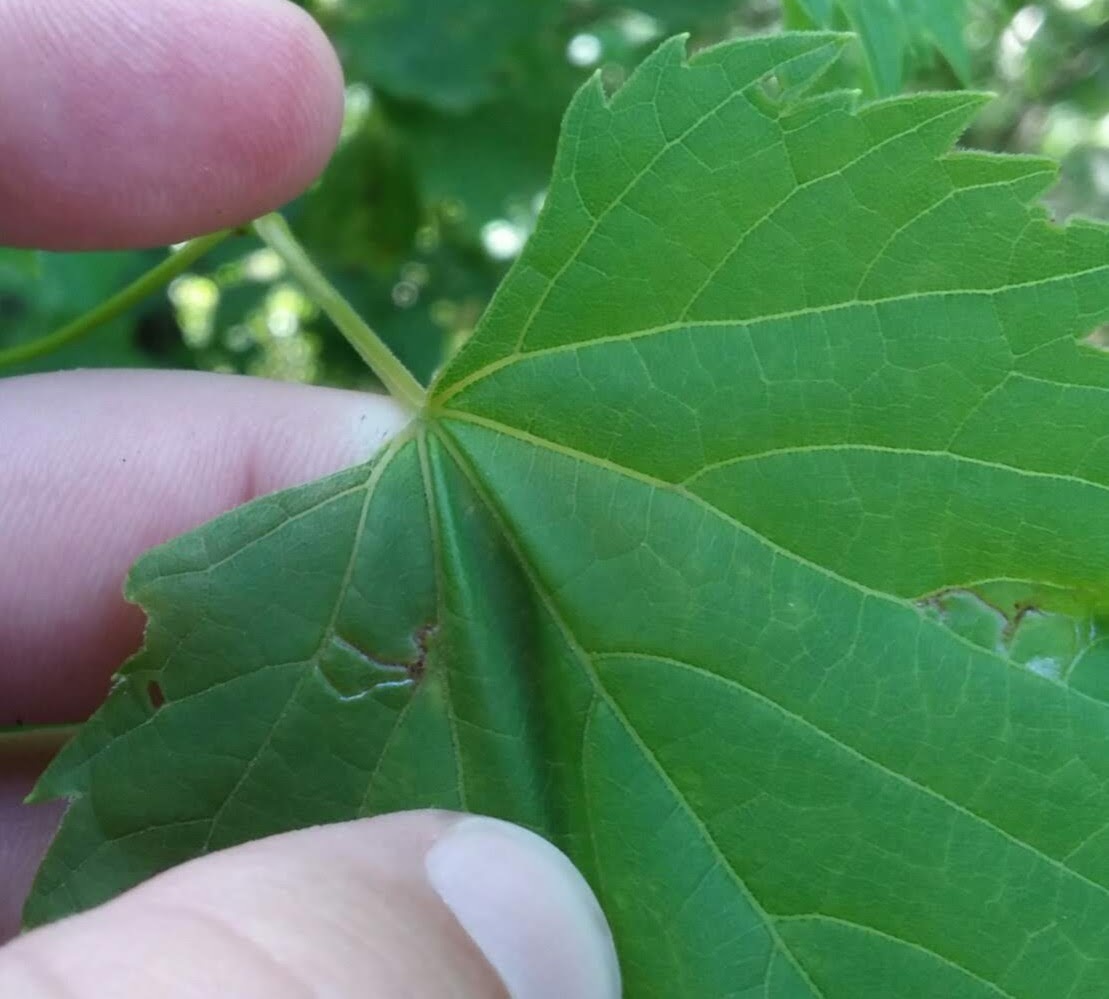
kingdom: Animalia
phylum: Arthropoda
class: Insecta
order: Lepidoptera
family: Gracillariidae
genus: Phyllocnistis
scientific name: Phyllocnistis vitegenella
